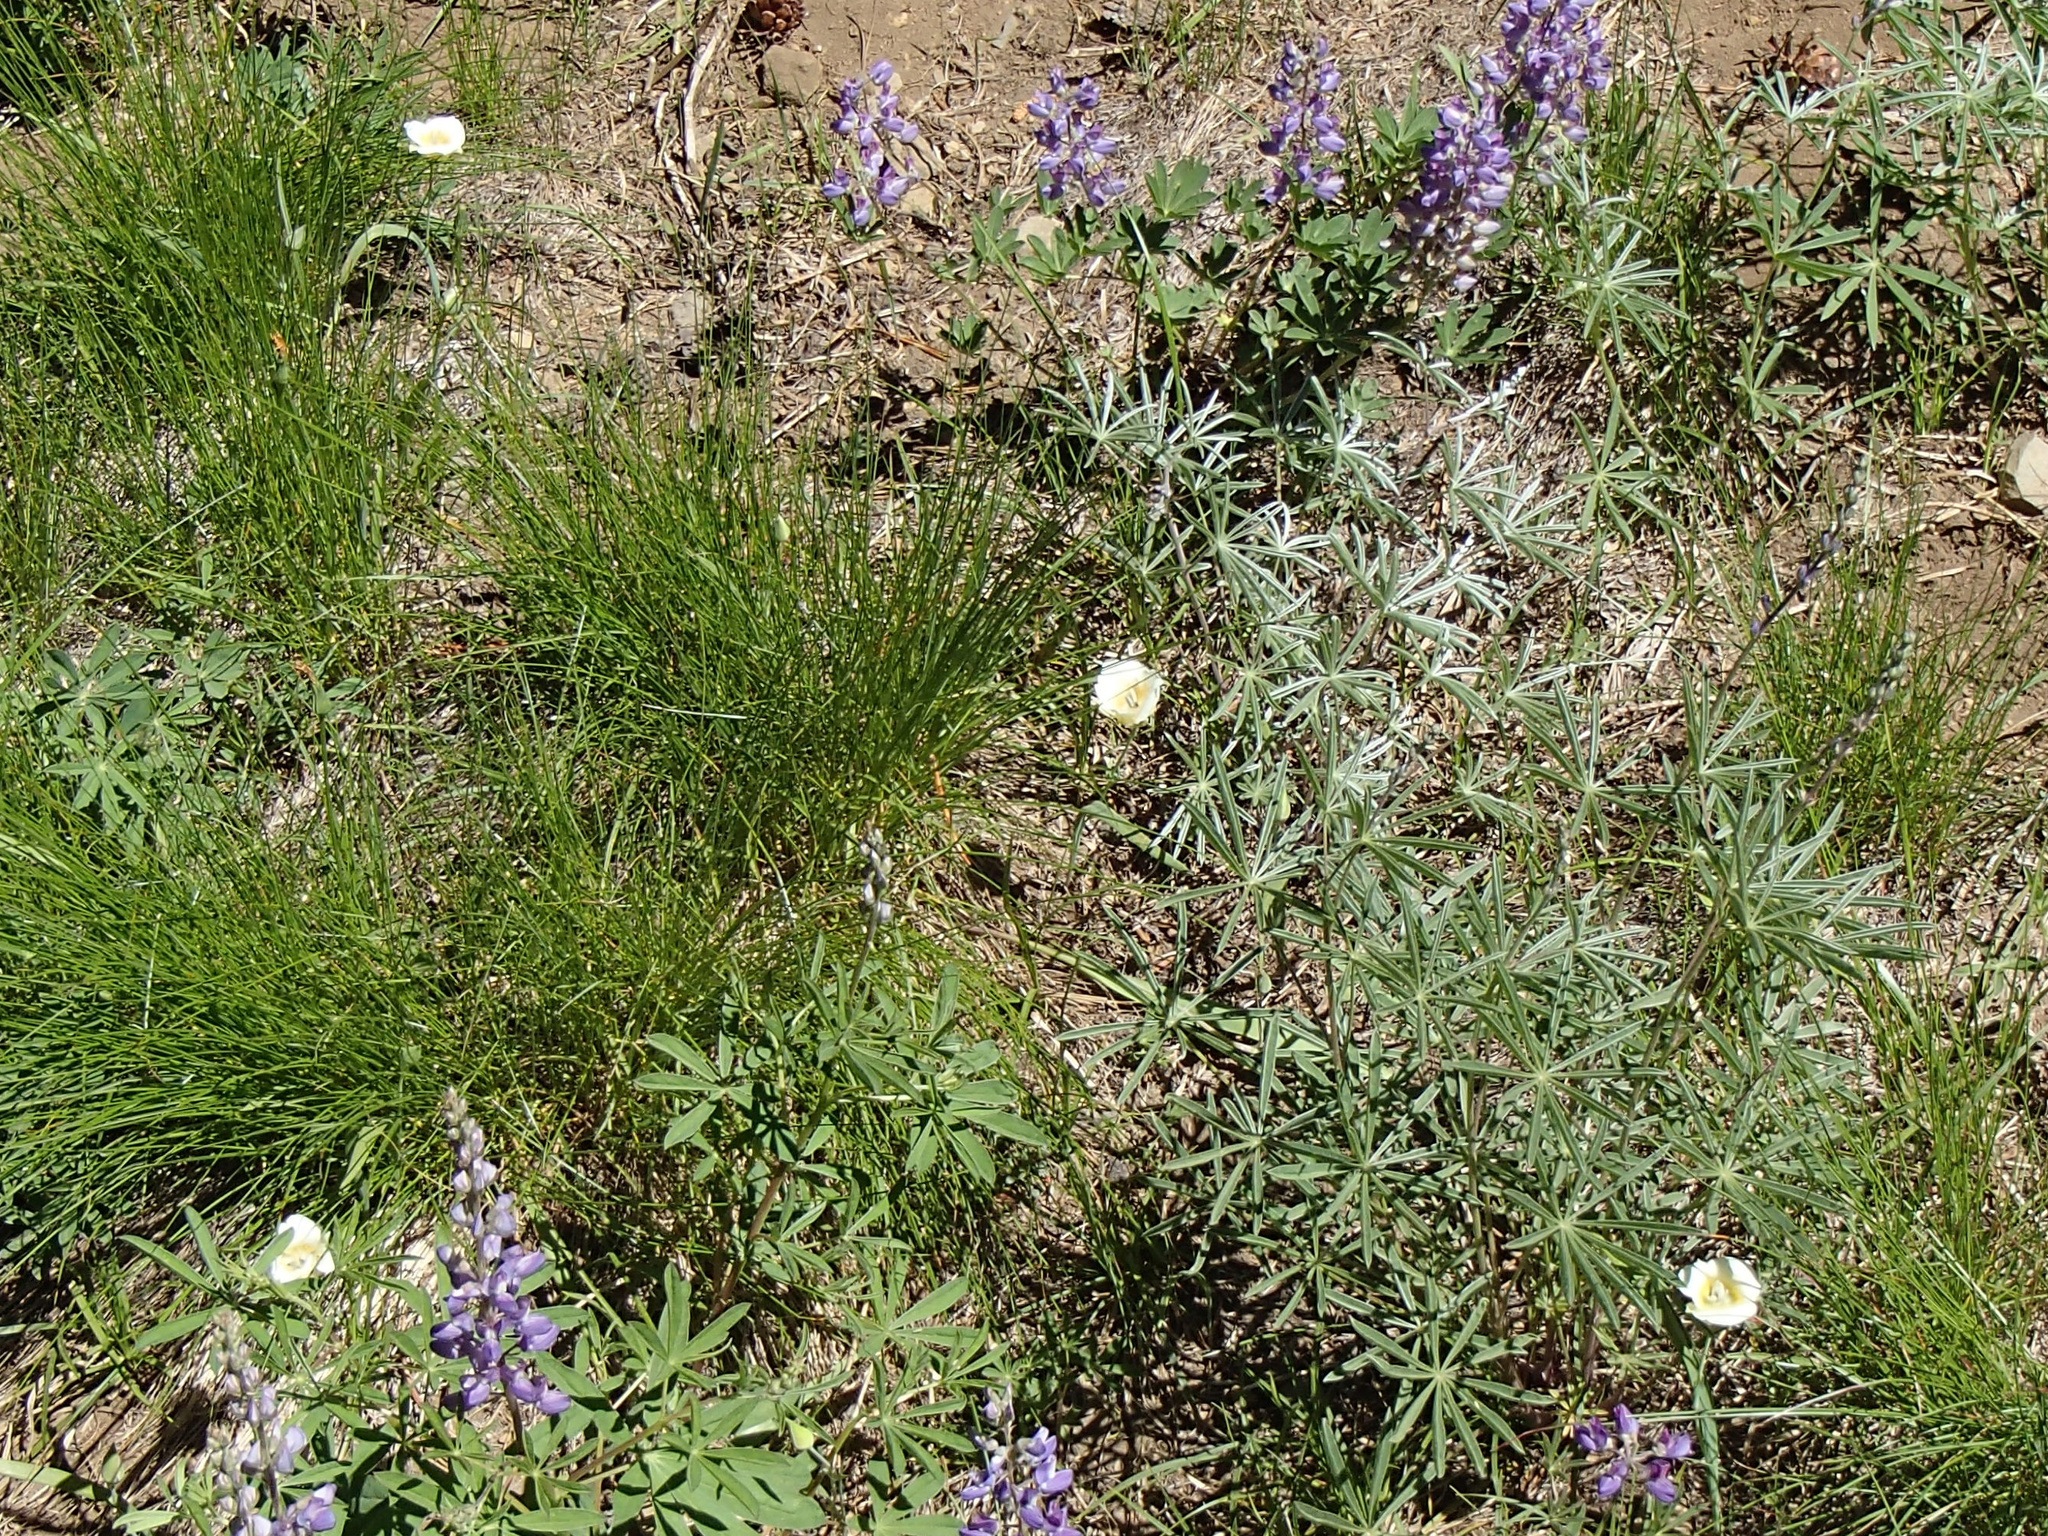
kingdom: Plantae
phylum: Tracheophyta
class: Liliopsida
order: Liliales
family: Liliaceae
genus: Calochortus
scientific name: Calochortus subalpinus
